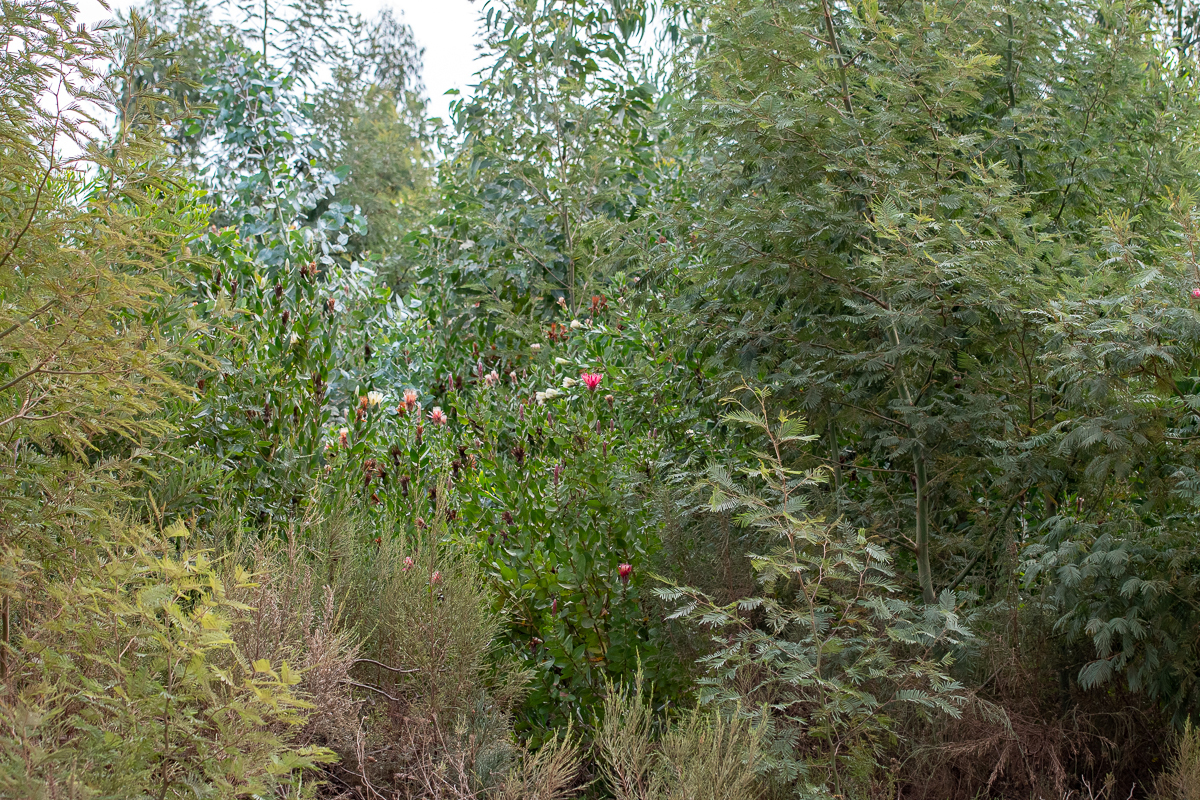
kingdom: Plantae
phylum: Tracheophyta
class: Magnoliopsida
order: Proteales
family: Proteaceae
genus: Protea
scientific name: Protea aurea
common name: Shuttlecock sugarbush
